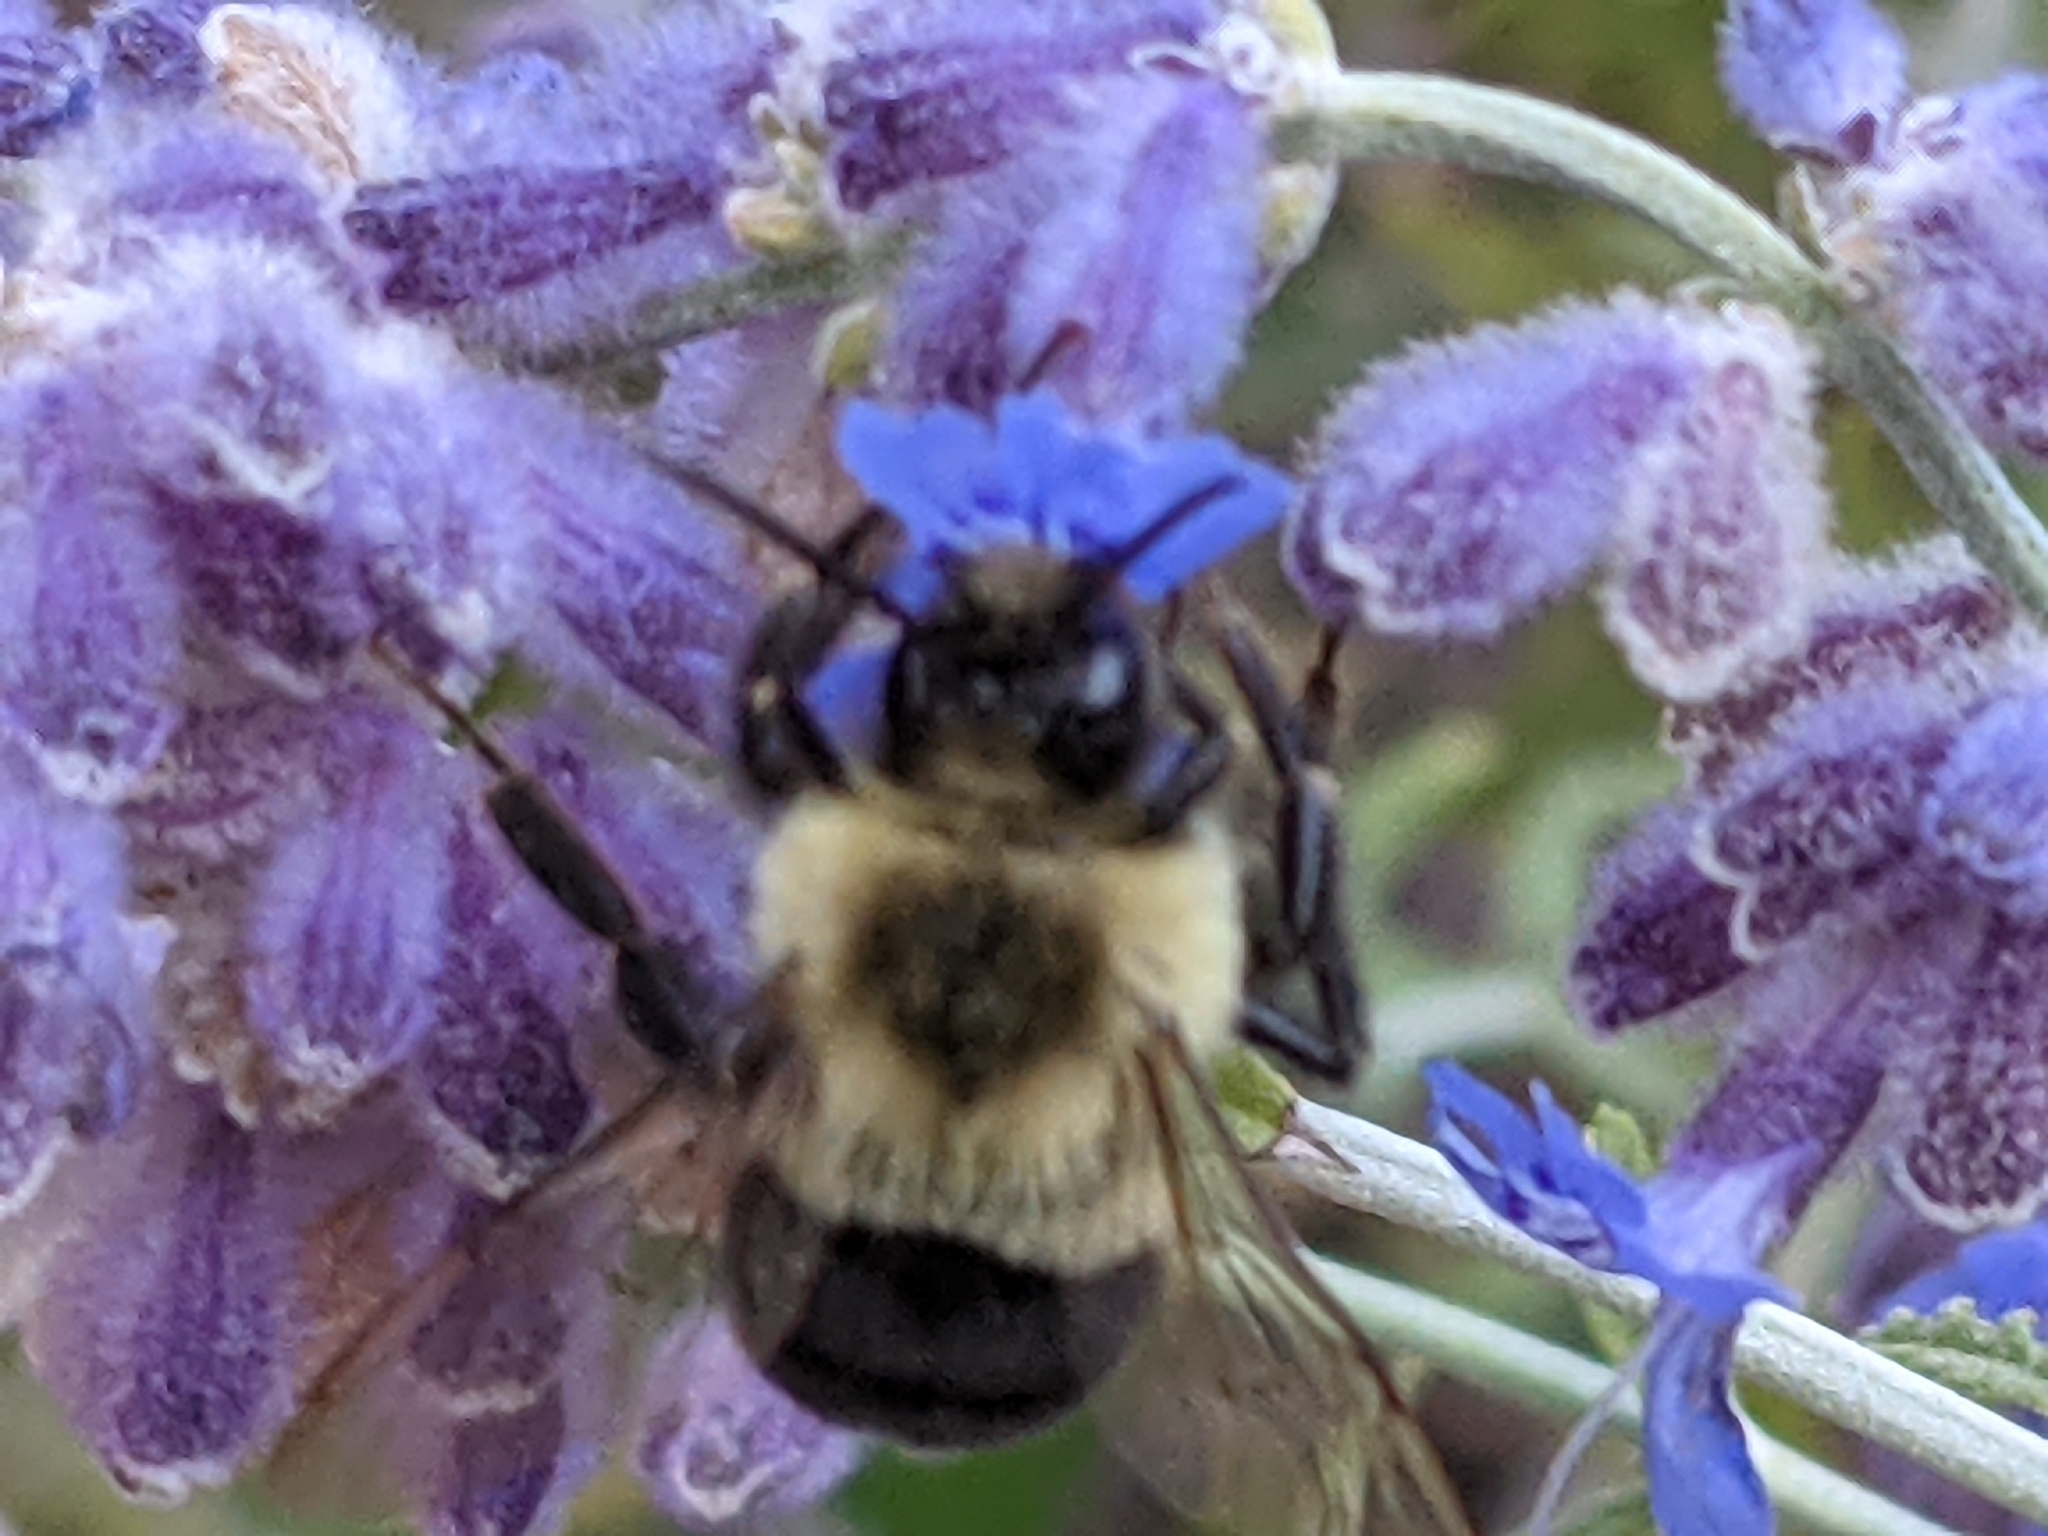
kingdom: Animalia
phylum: Arthropoda
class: Insecta
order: Hymenoptera
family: Apidae
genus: Bombus
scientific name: Bombus impatiens
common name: Common eastern bumble bee
